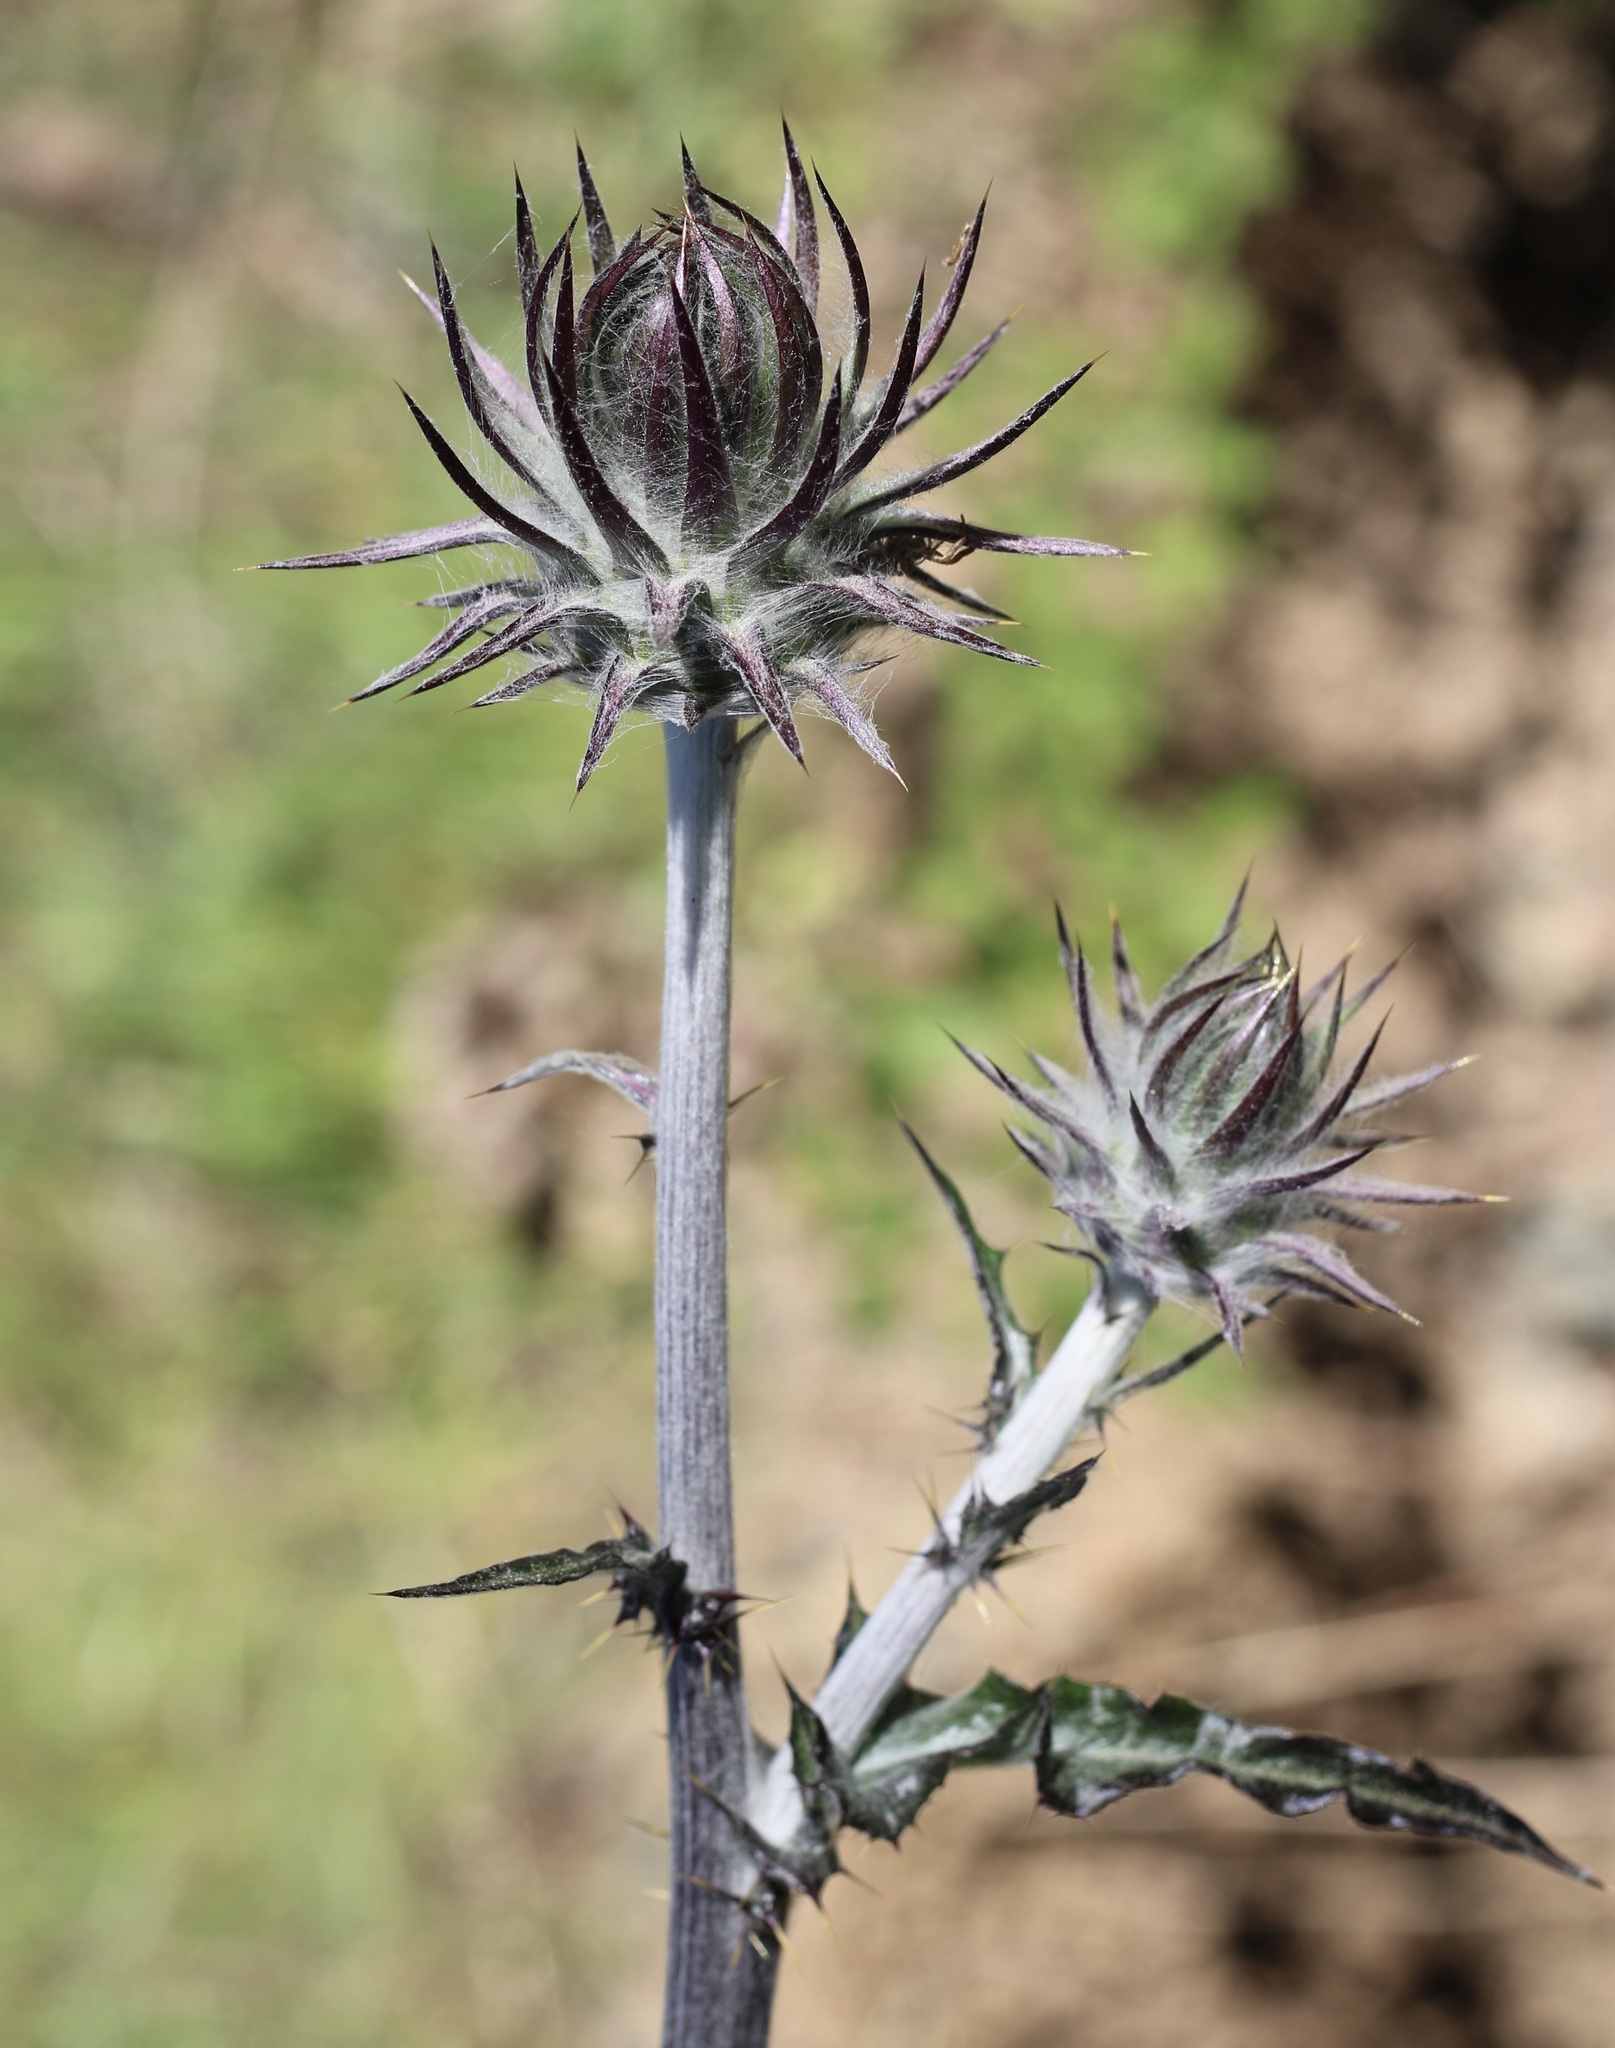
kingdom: Plantae
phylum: Tracheophyta
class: Magnoliopsida
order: Asterales
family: Asteraceae
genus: Cirsium
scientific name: Cirsium occidentale
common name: Western thistle
